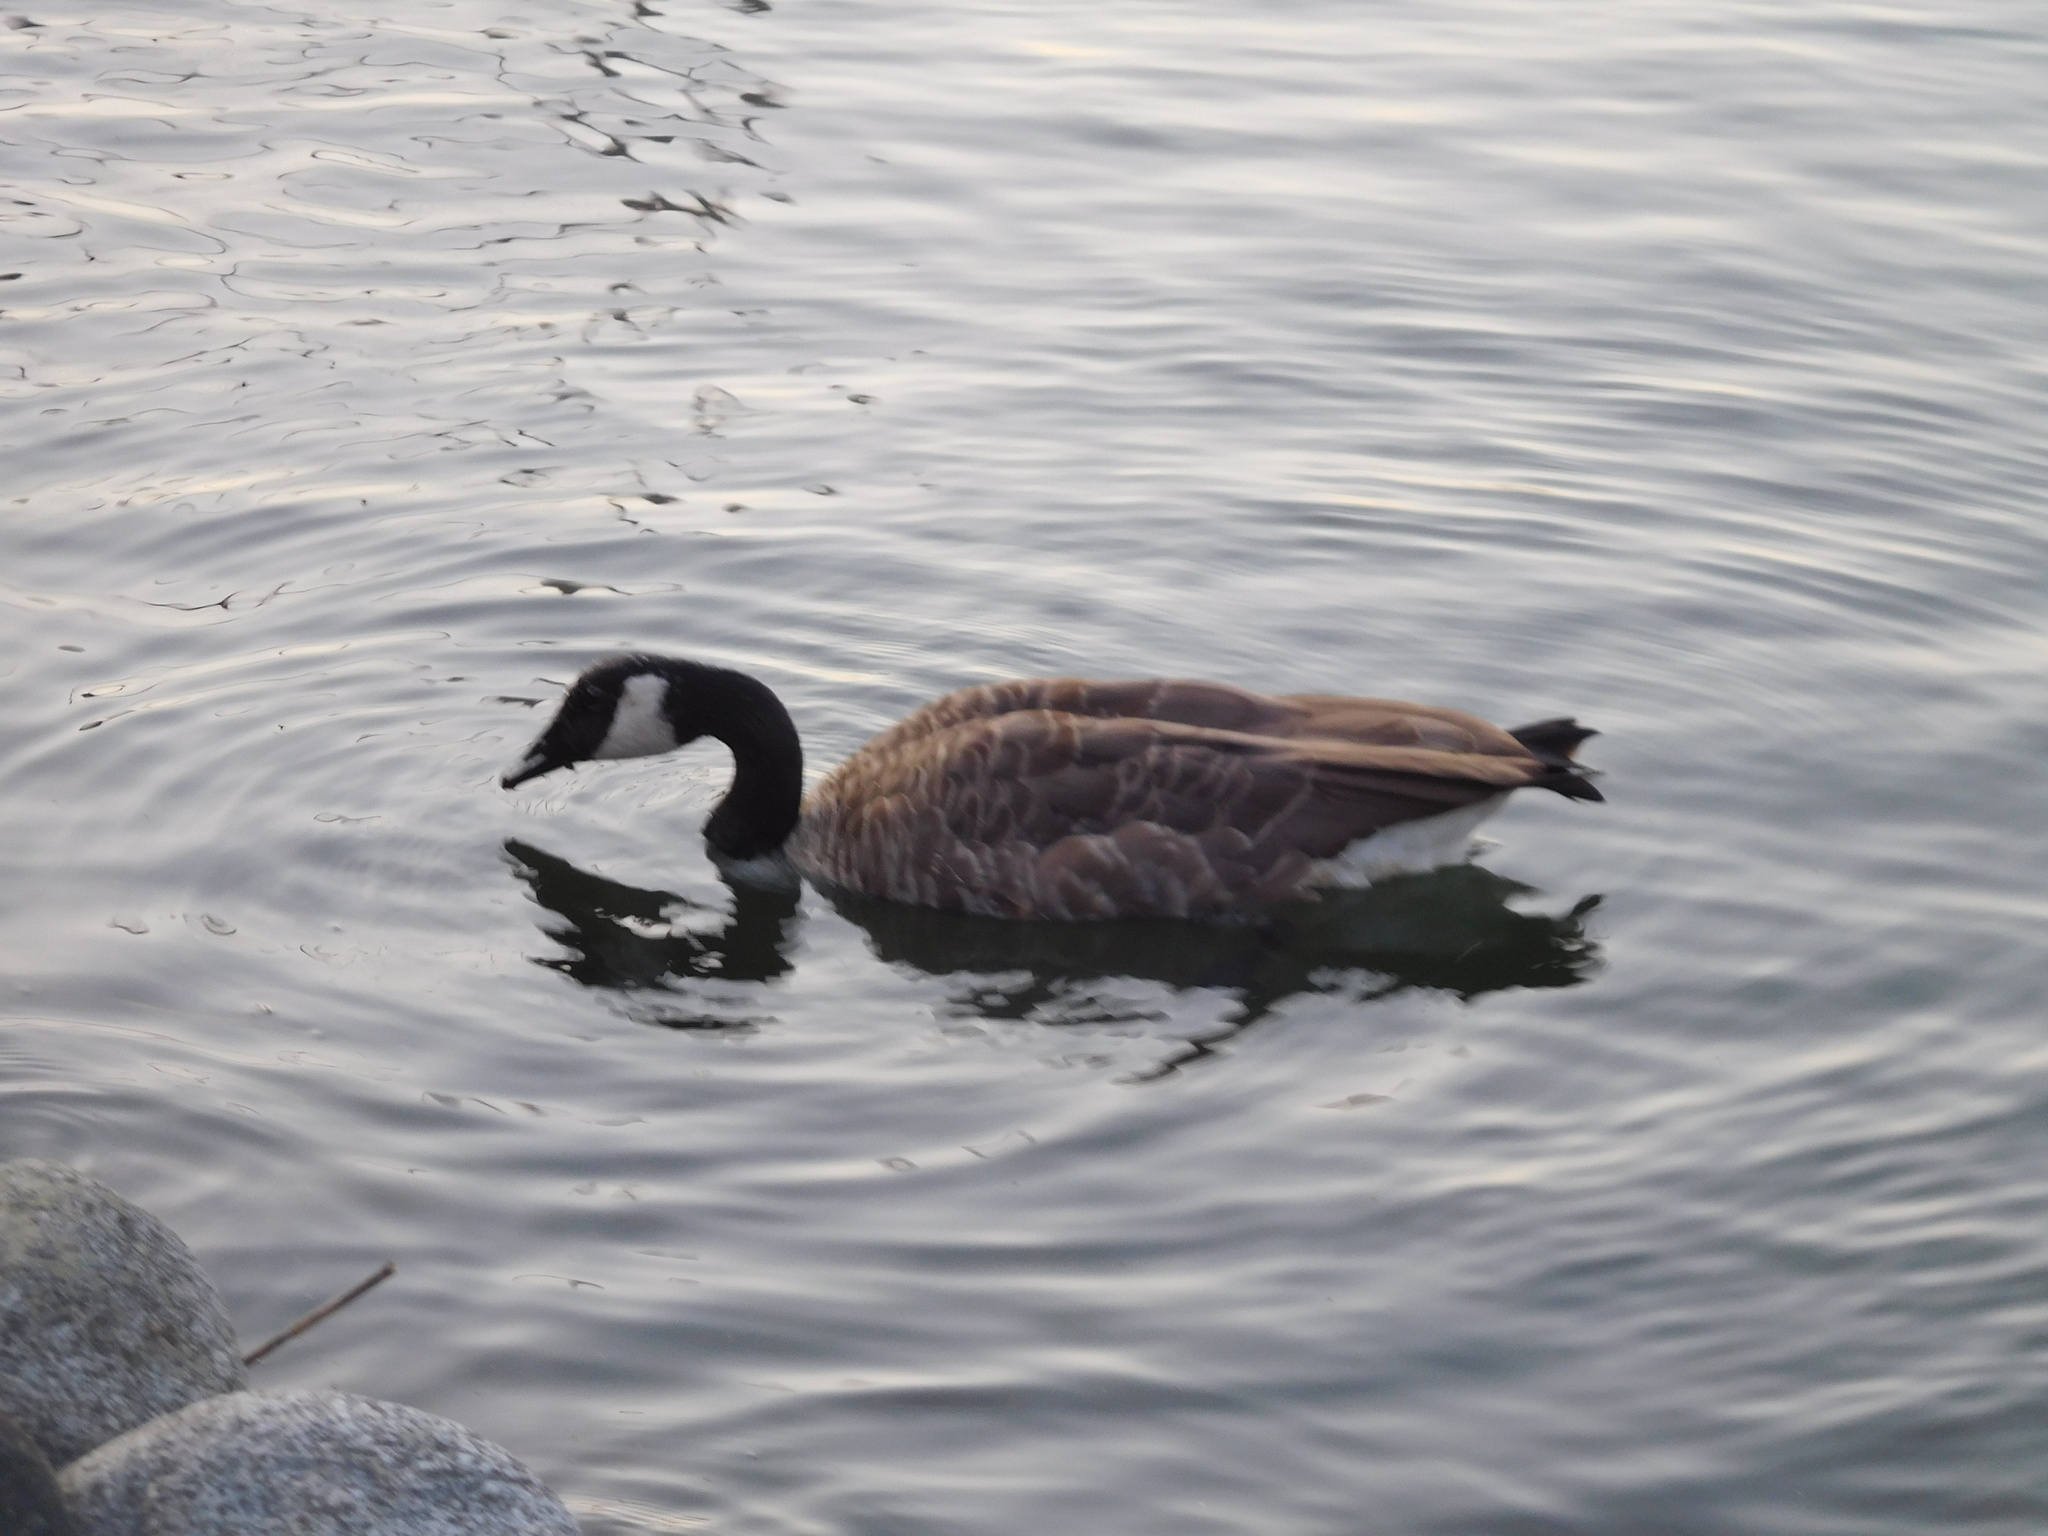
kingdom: Animalia
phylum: Chordata
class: Aves
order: Anseriformes
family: Anatidae
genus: Branta
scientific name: Branta canadensis
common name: Canada goose
